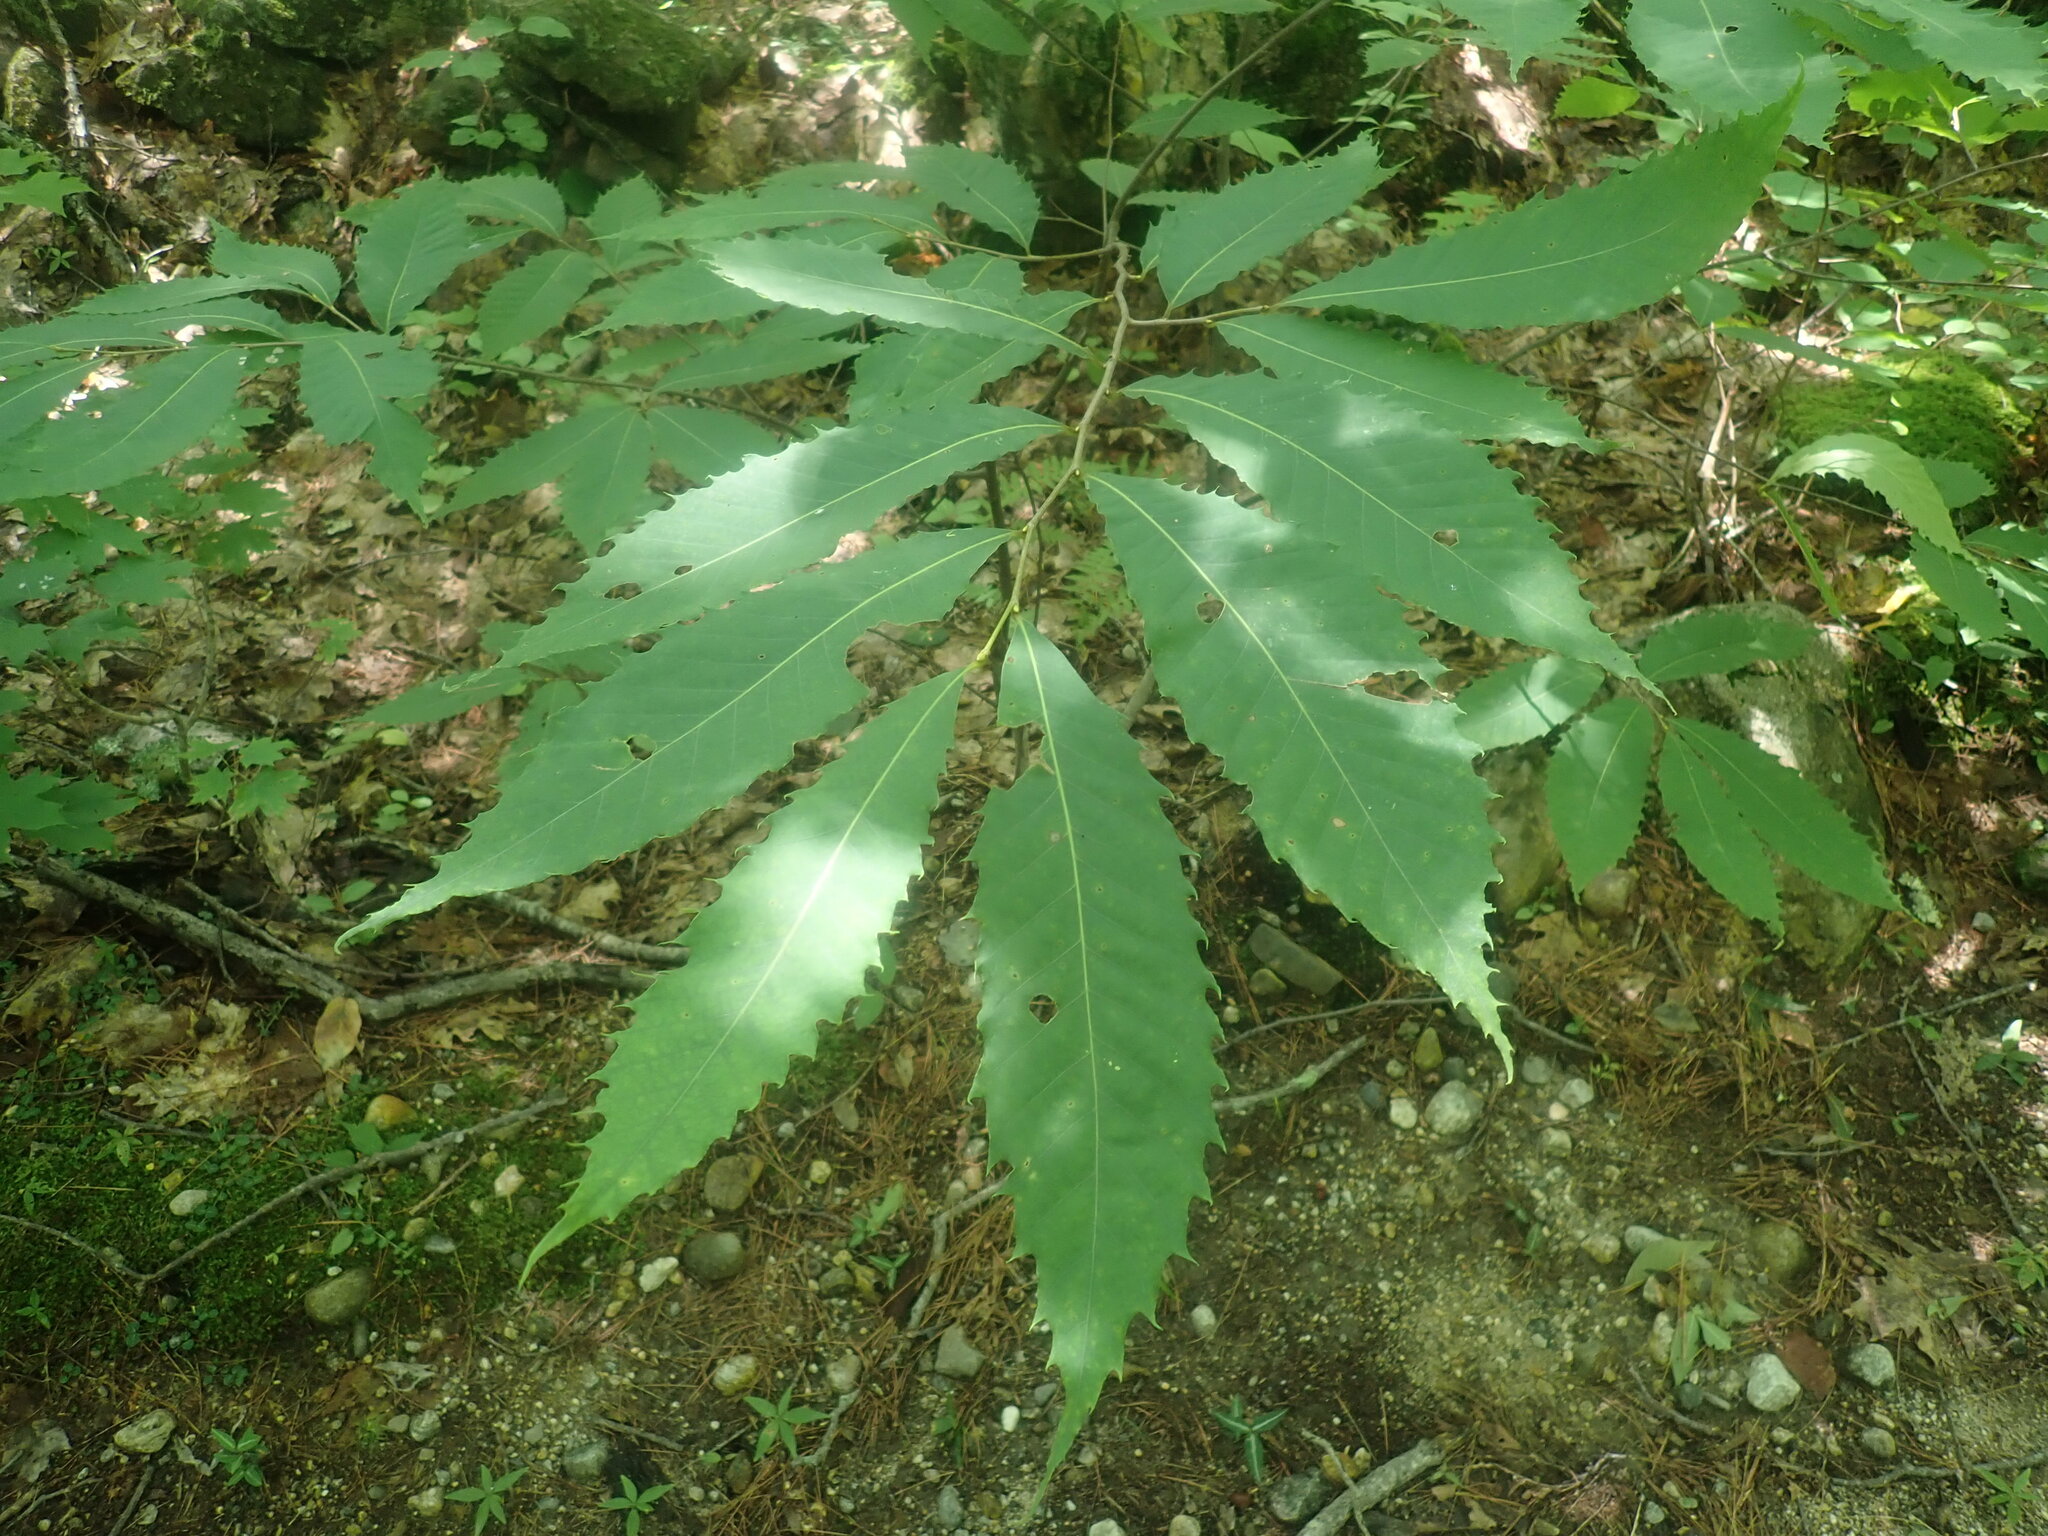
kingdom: Plantae
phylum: Tracheophyta
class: Magnoliopsida
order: Fagales
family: Fagaceae
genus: Castanea
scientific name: Castanea dentata
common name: American chestnut
